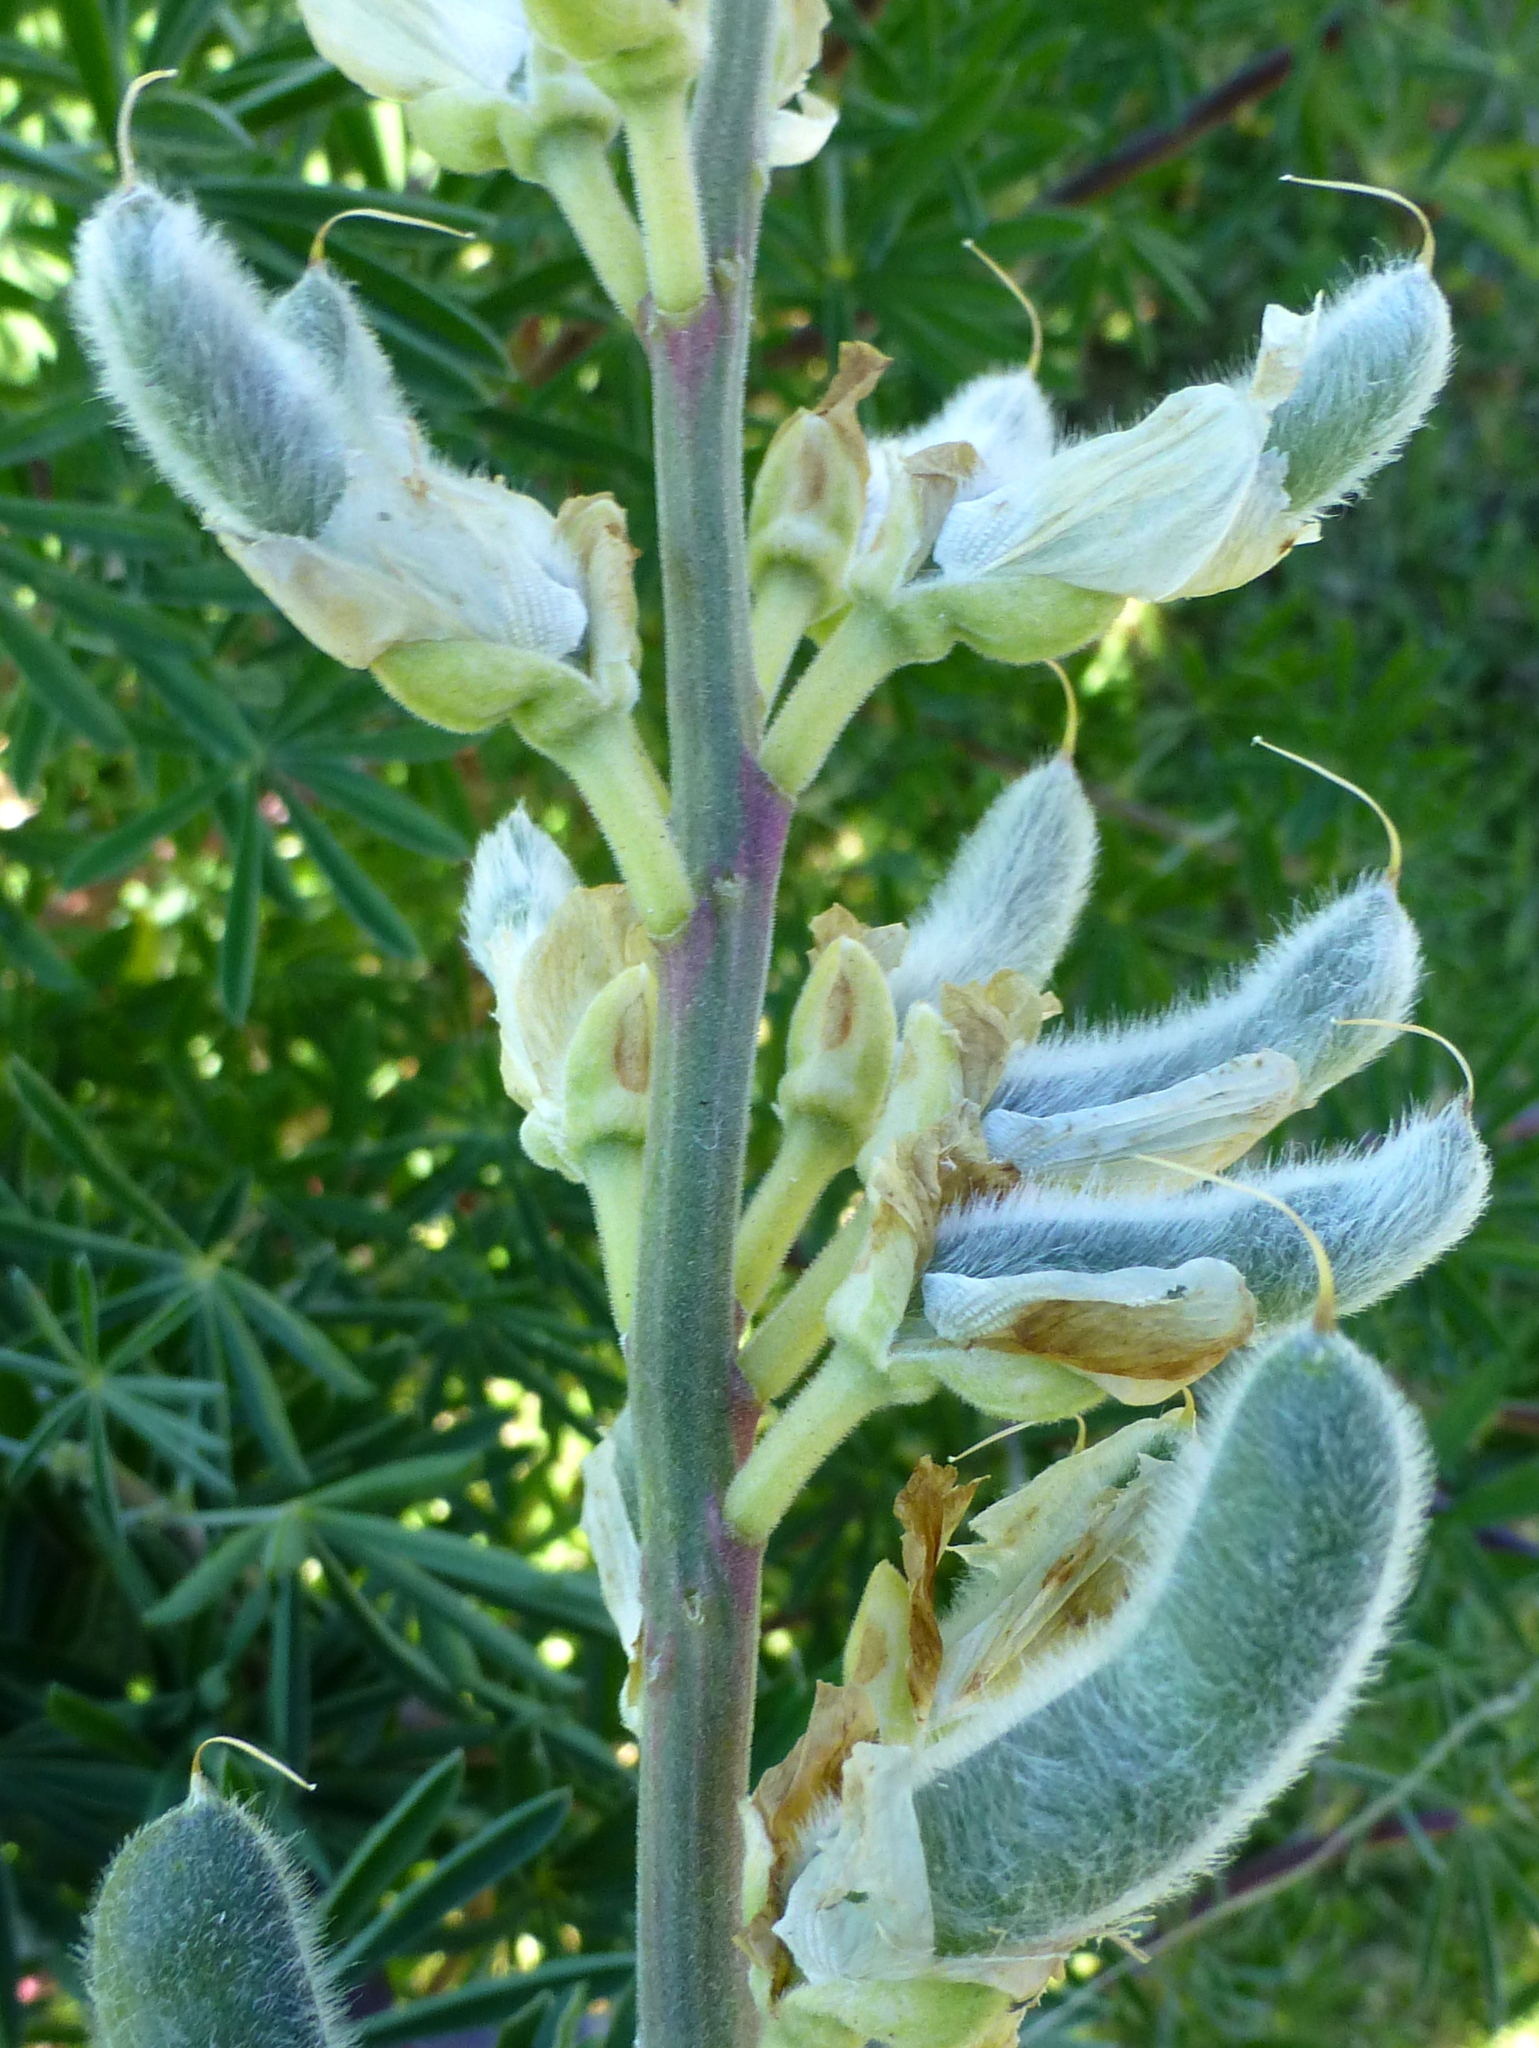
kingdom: Plantae
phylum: Tracheophyta
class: Magnoliopsida
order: Fabales
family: Fabaceae
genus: Lupinus
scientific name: Lupinus arboreus
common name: Yellow bush lupine
